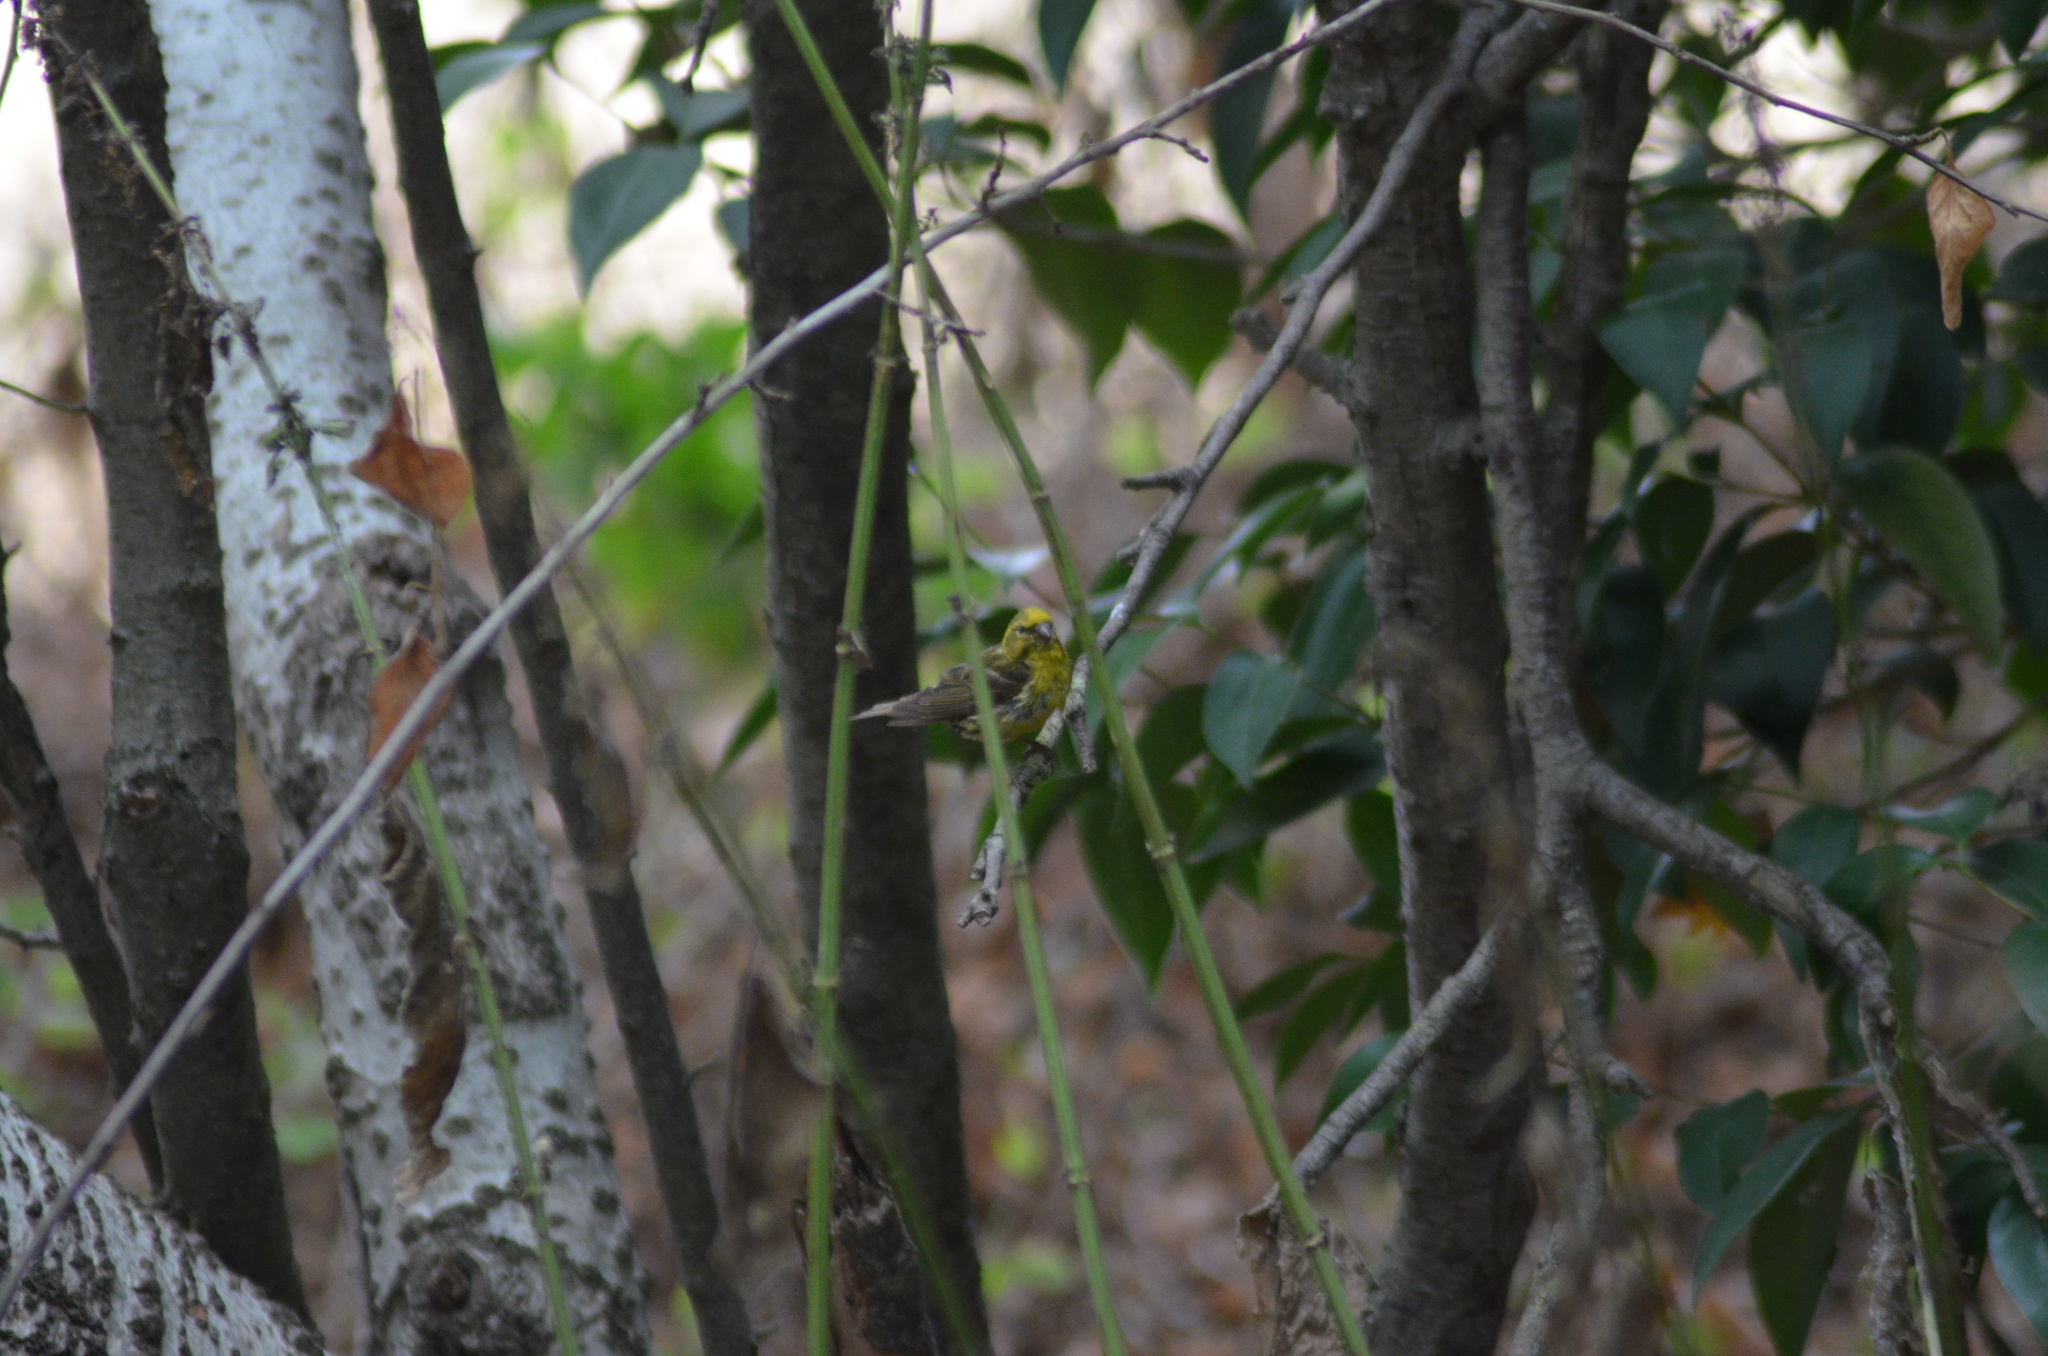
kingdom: Animalia
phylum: Chordata
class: Aves
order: Passeriformes
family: Fringillidae
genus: Serinus
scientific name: Serinus serinus
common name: European serin
